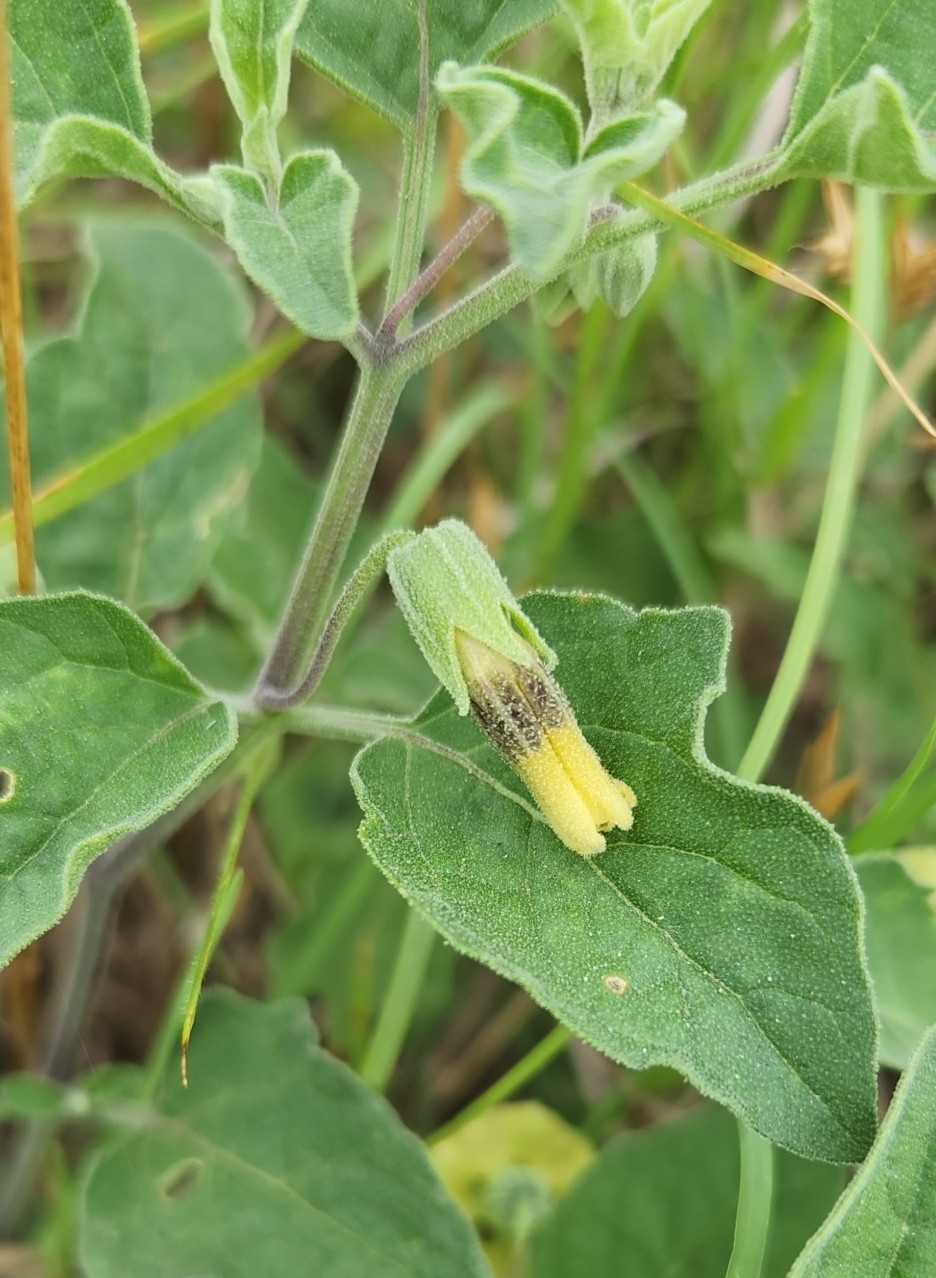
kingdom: Plantae
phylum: Tracheophyta
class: Magnoliopsida
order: Solanales
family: Solanaceae
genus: Physalis
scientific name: Physalis cinerascens
